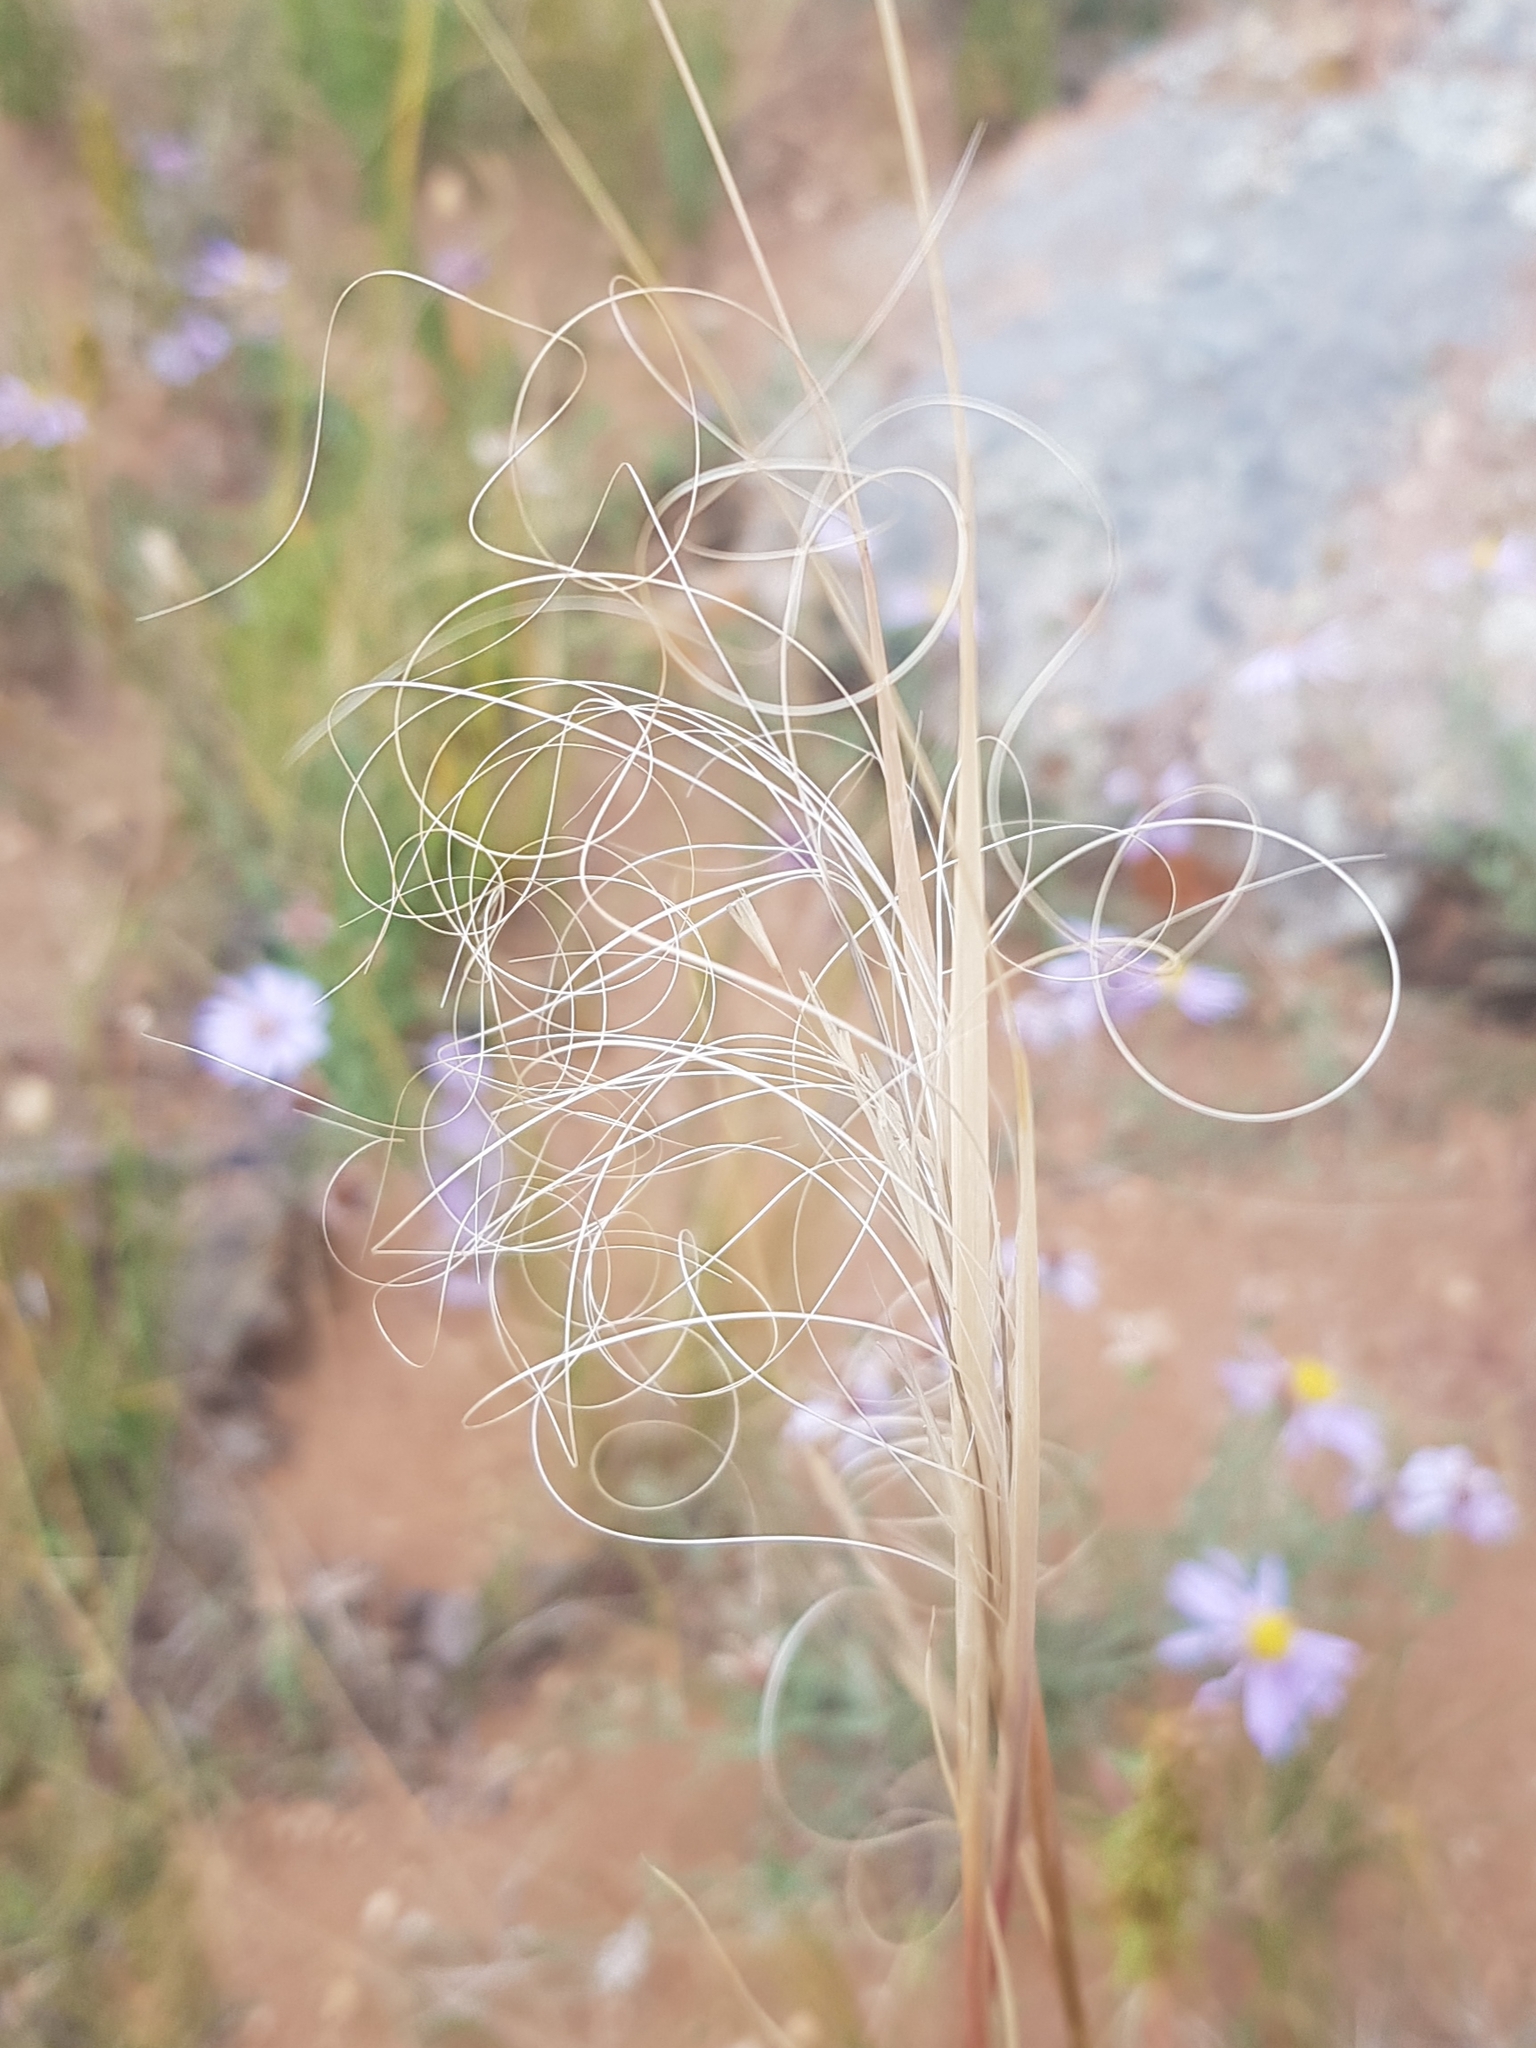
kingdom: Plantae
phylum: Tracheophyta
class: Liliopsida
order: Poales
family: Poaceae
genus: Stipa
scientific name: Stipa capillata
